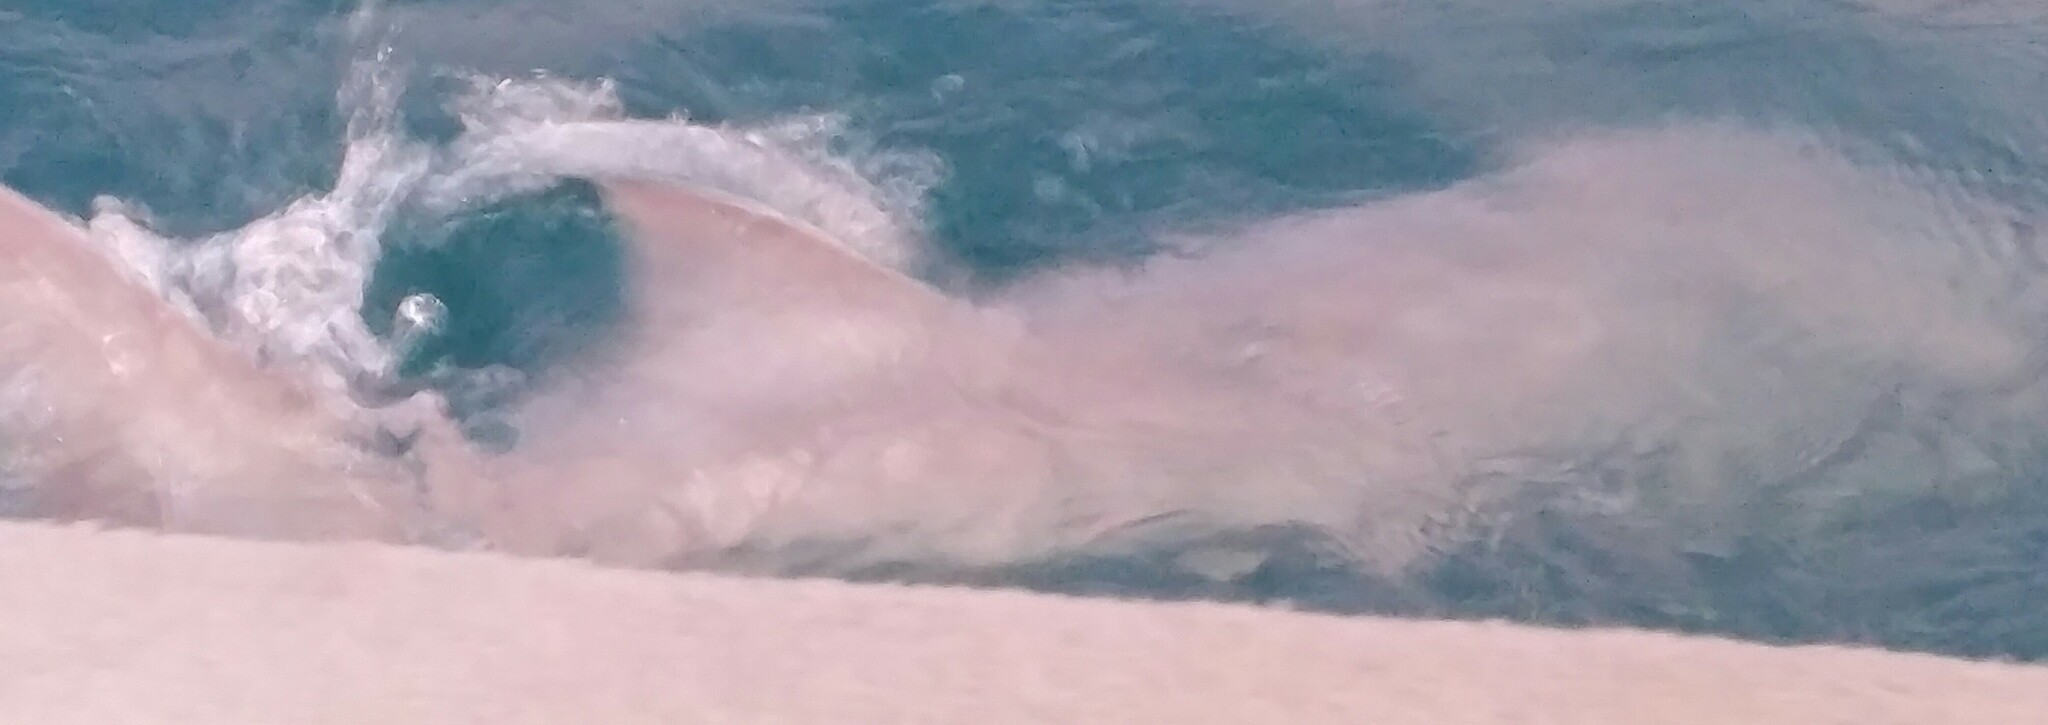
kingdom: Animalia
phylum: Chordata
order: Acipenseriformes
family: Acipenseridae
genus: Acipenser
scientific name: Acipenser fulvescens
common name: Lake sturgeon
